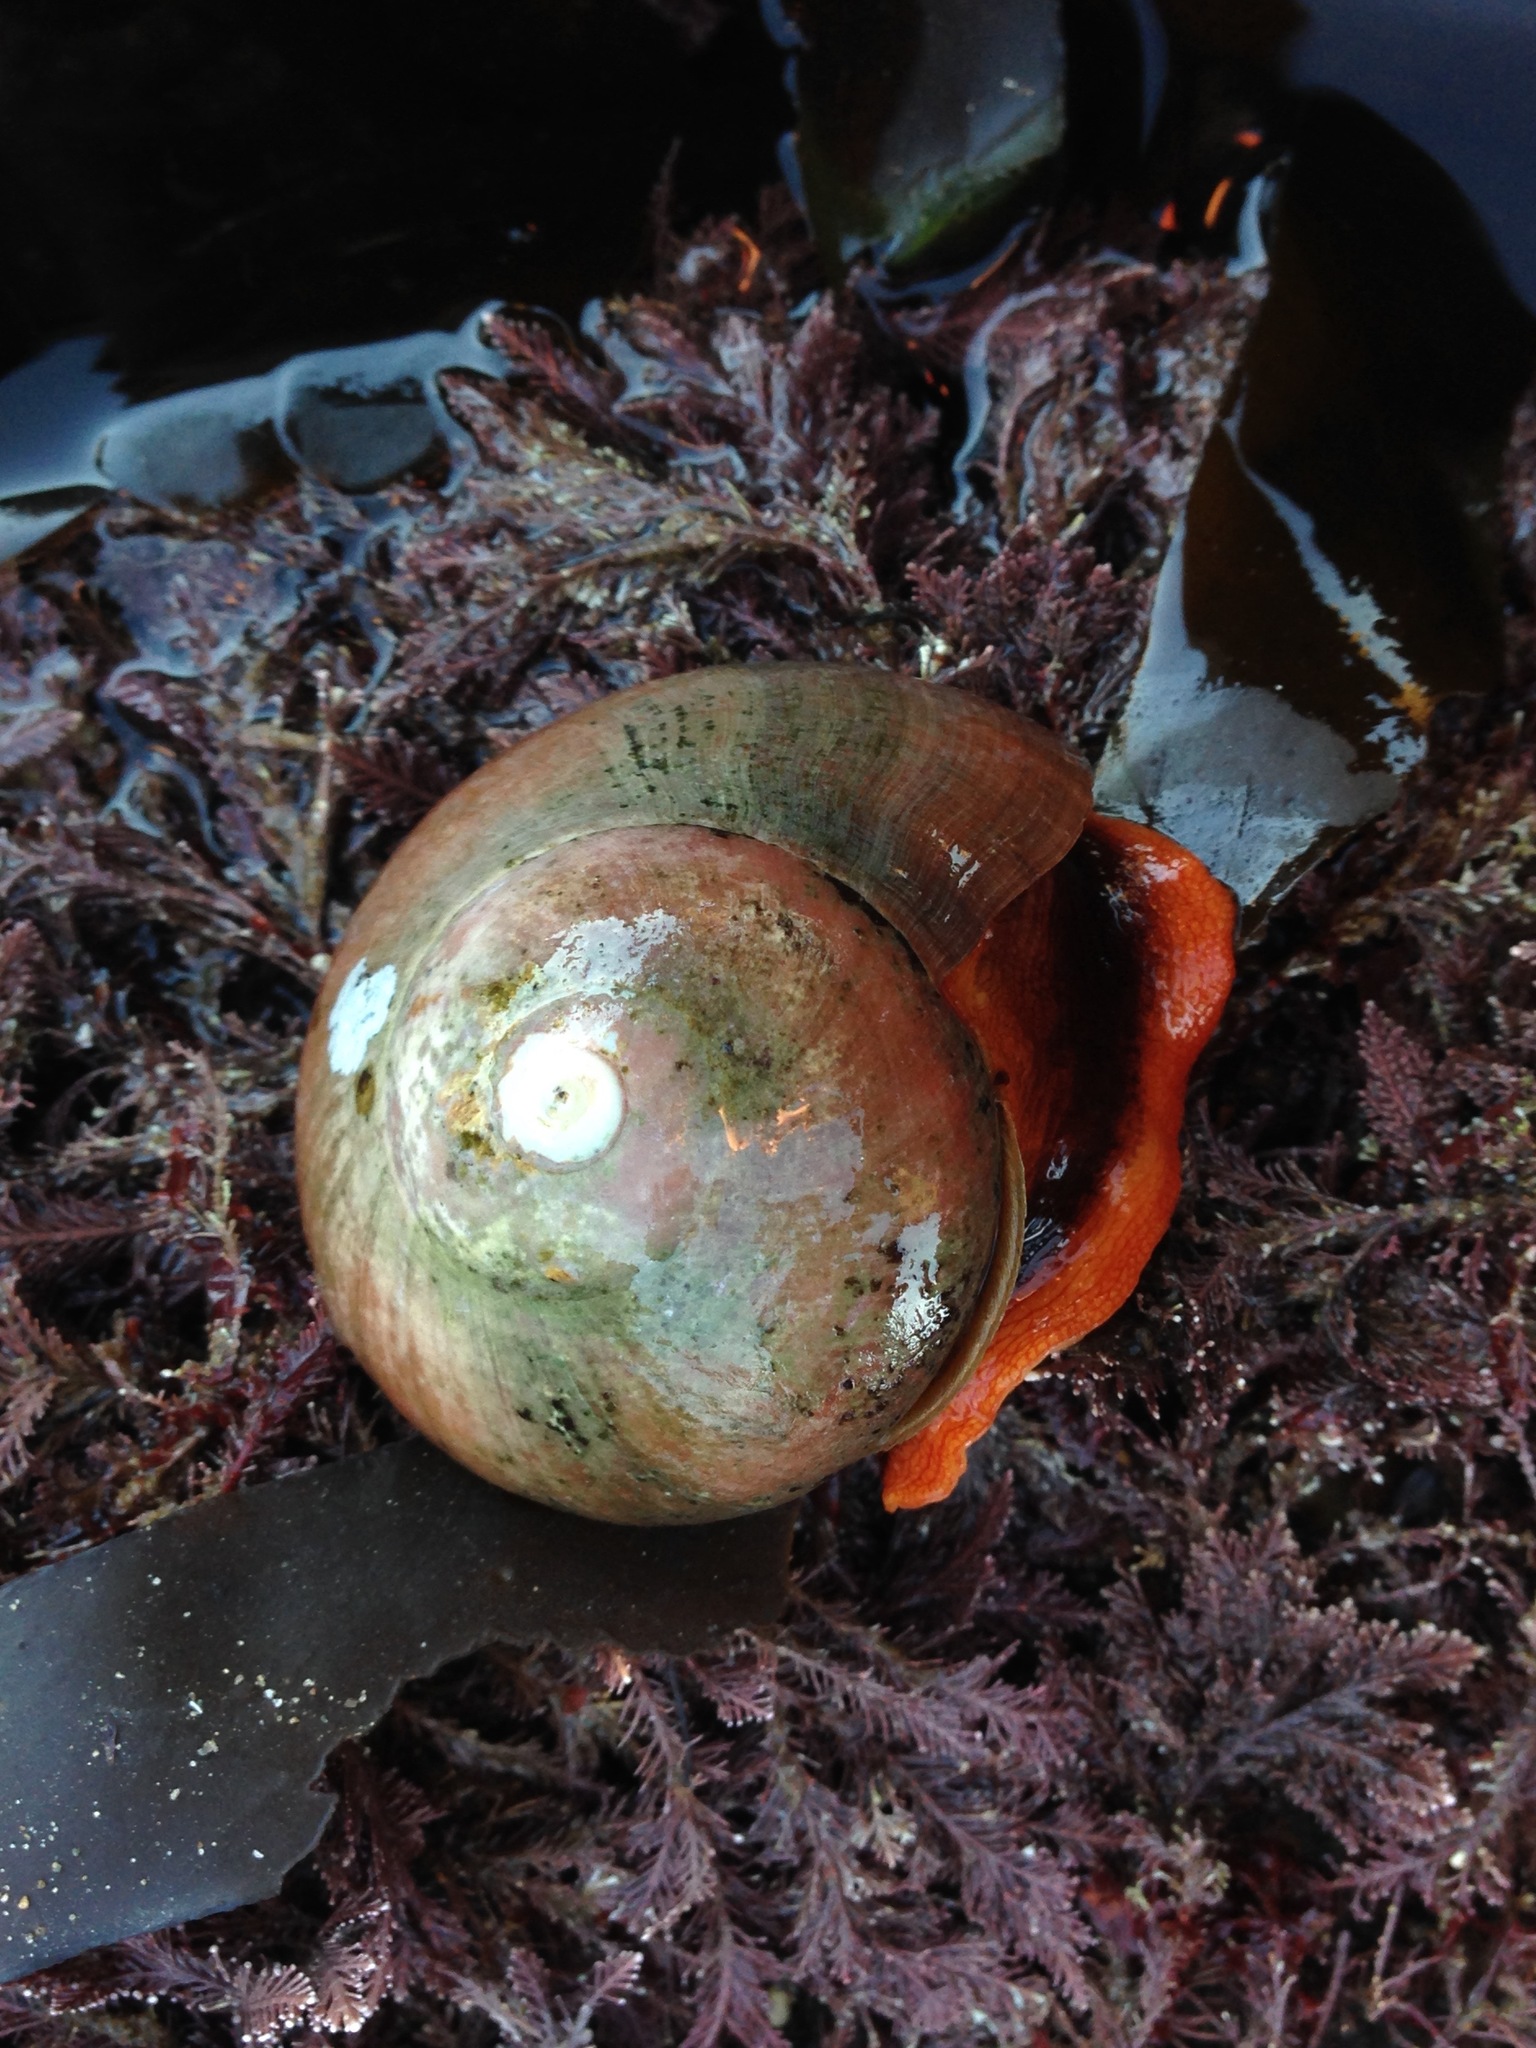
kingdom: Animalia
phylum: Mollusca
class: Gastropoda
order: Trochida
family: Tegulidae
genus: Norrisia
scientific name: Norrisia norrisii
